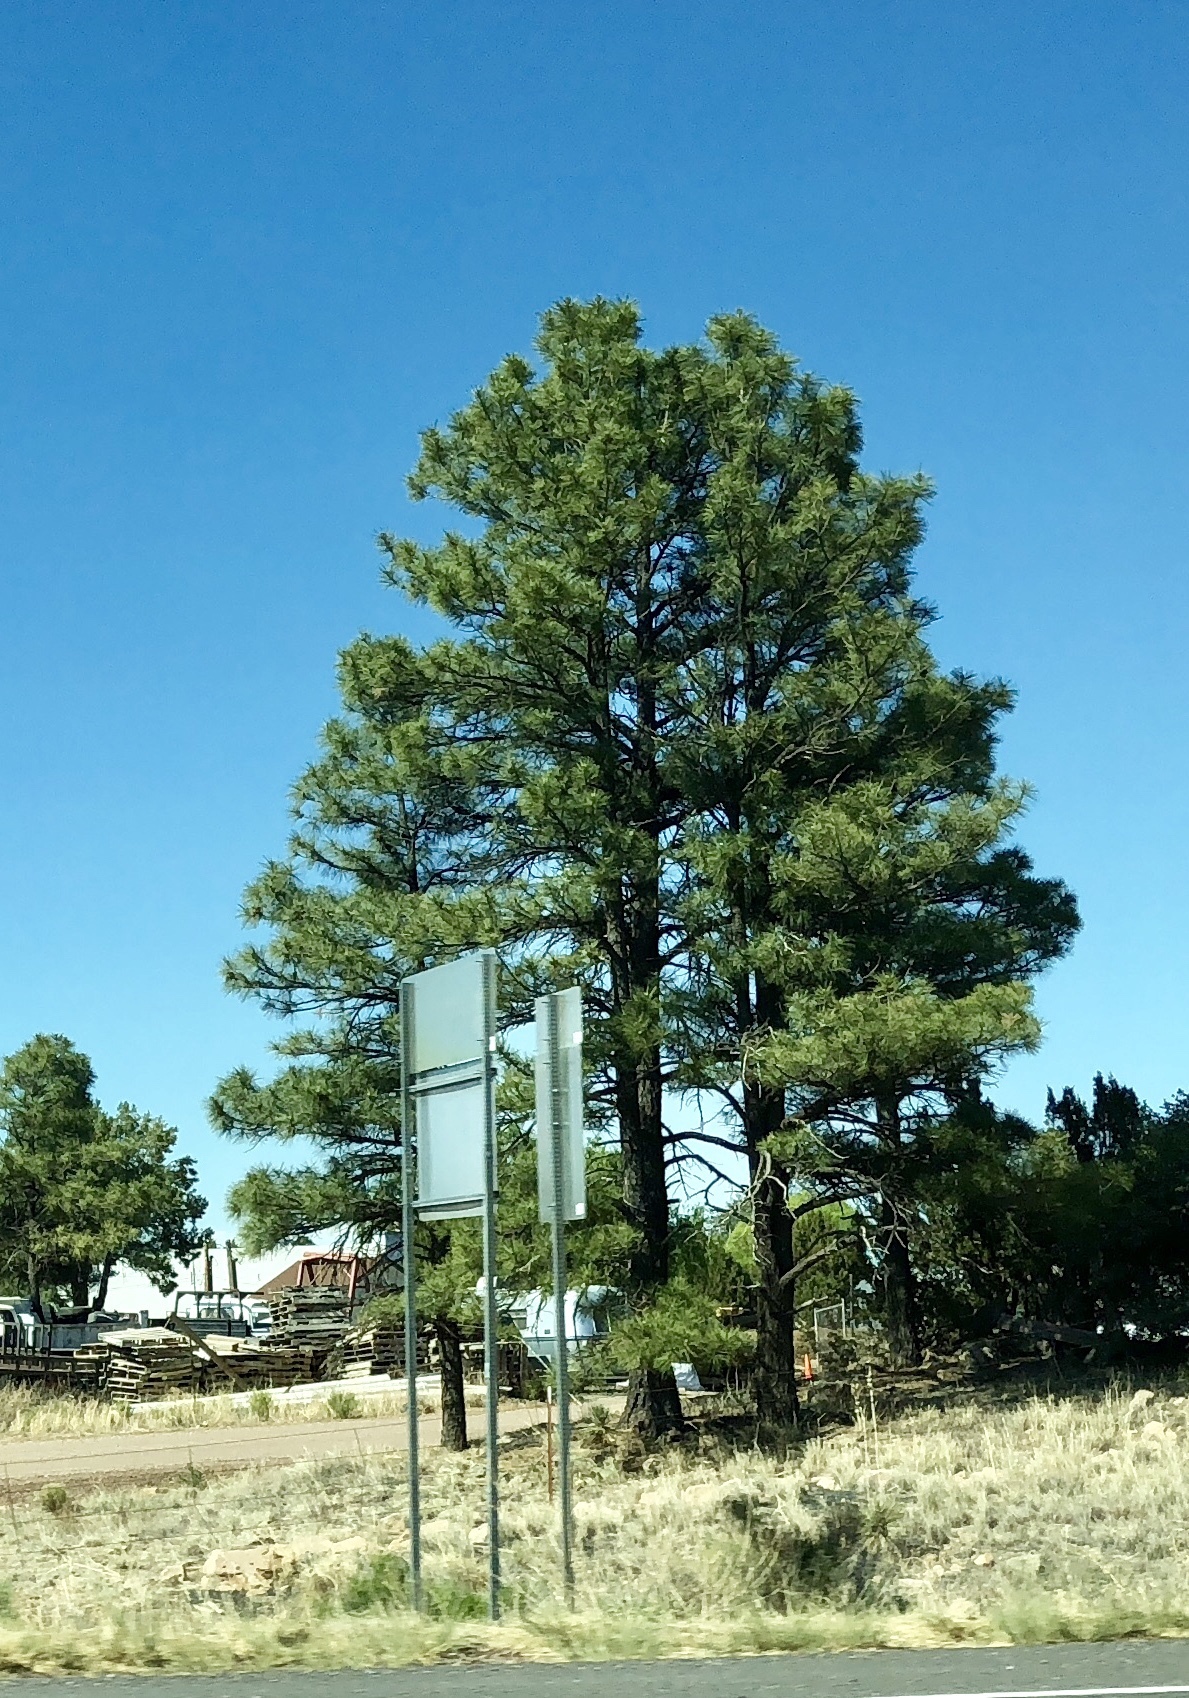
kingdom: Plantae
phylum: Tracheophyta
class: Pinopsida
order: Pinales
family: Pinaceae
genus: Pinus
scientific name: Pinus ponderosa
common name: Western yellow-pine
